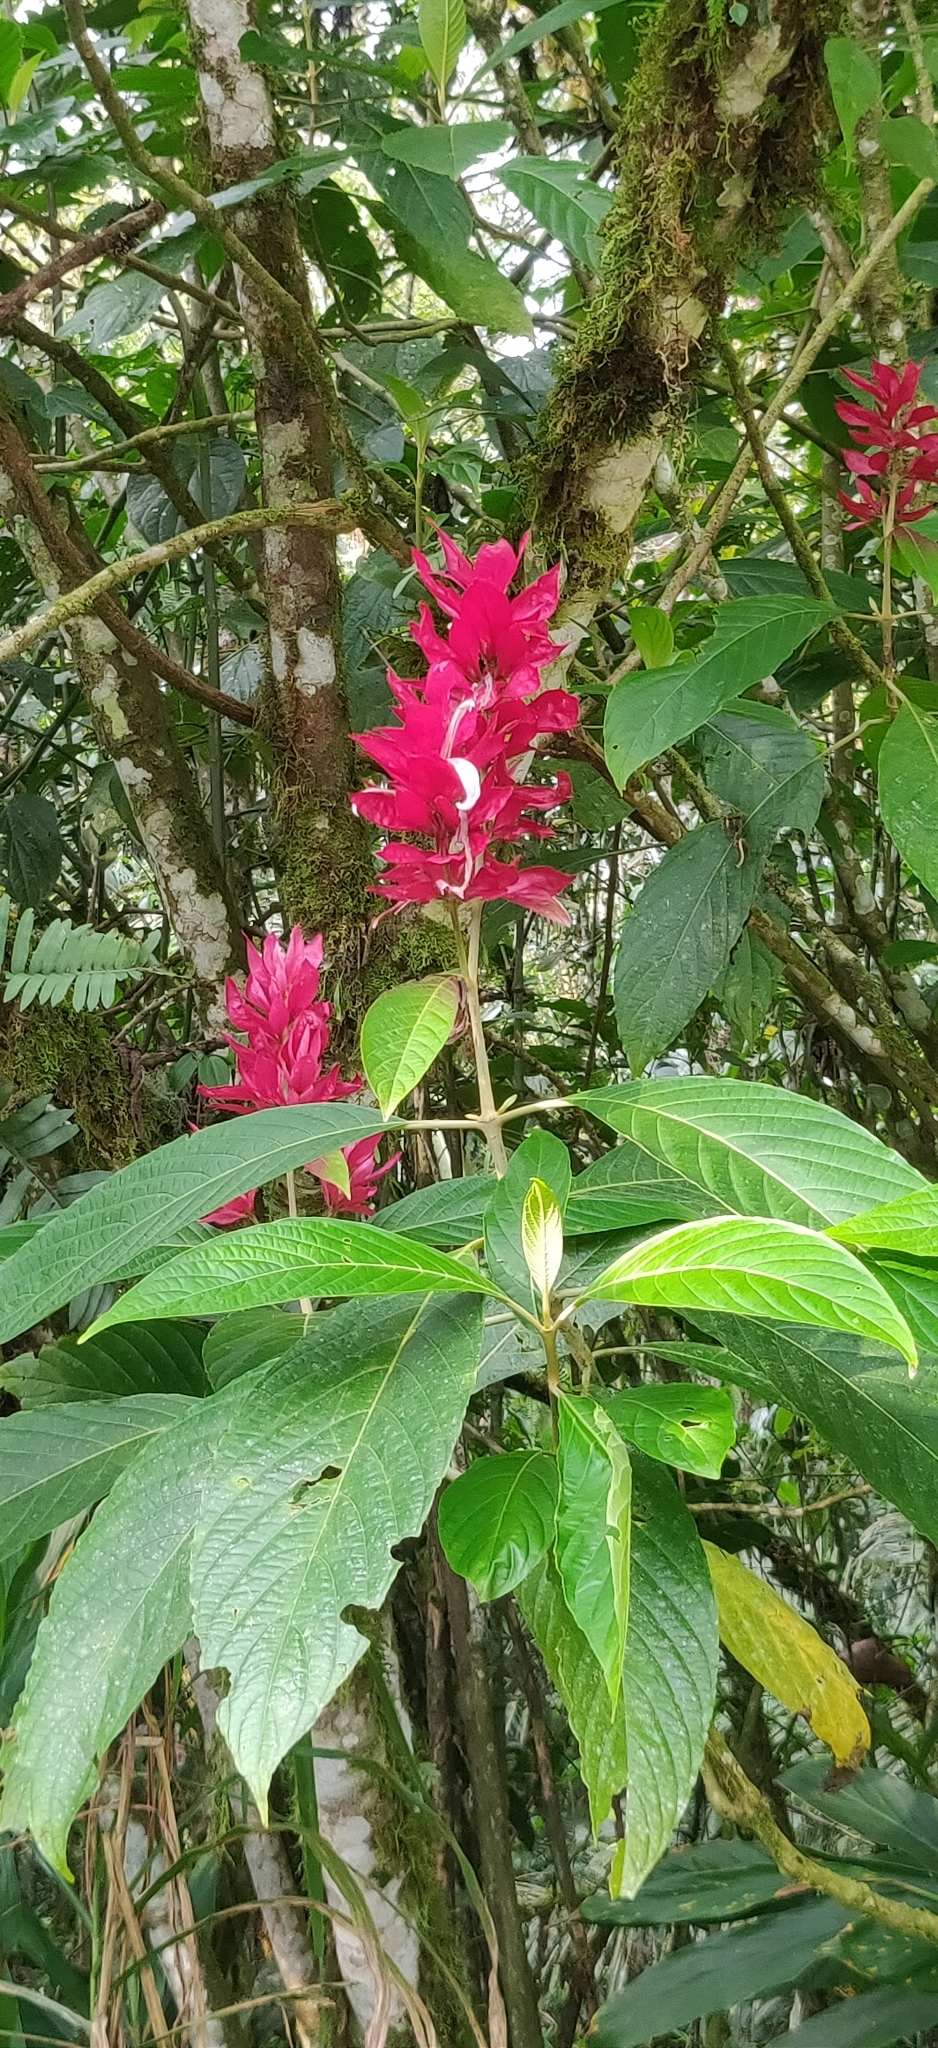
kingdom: Plantae
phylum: Tracheophyta
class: Magnoliopsida
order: Lamiales
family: Acanthaceae
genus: Megaskepasma
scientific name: Megaskepasma erythrochlamys
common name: Brazilian red-cloak
